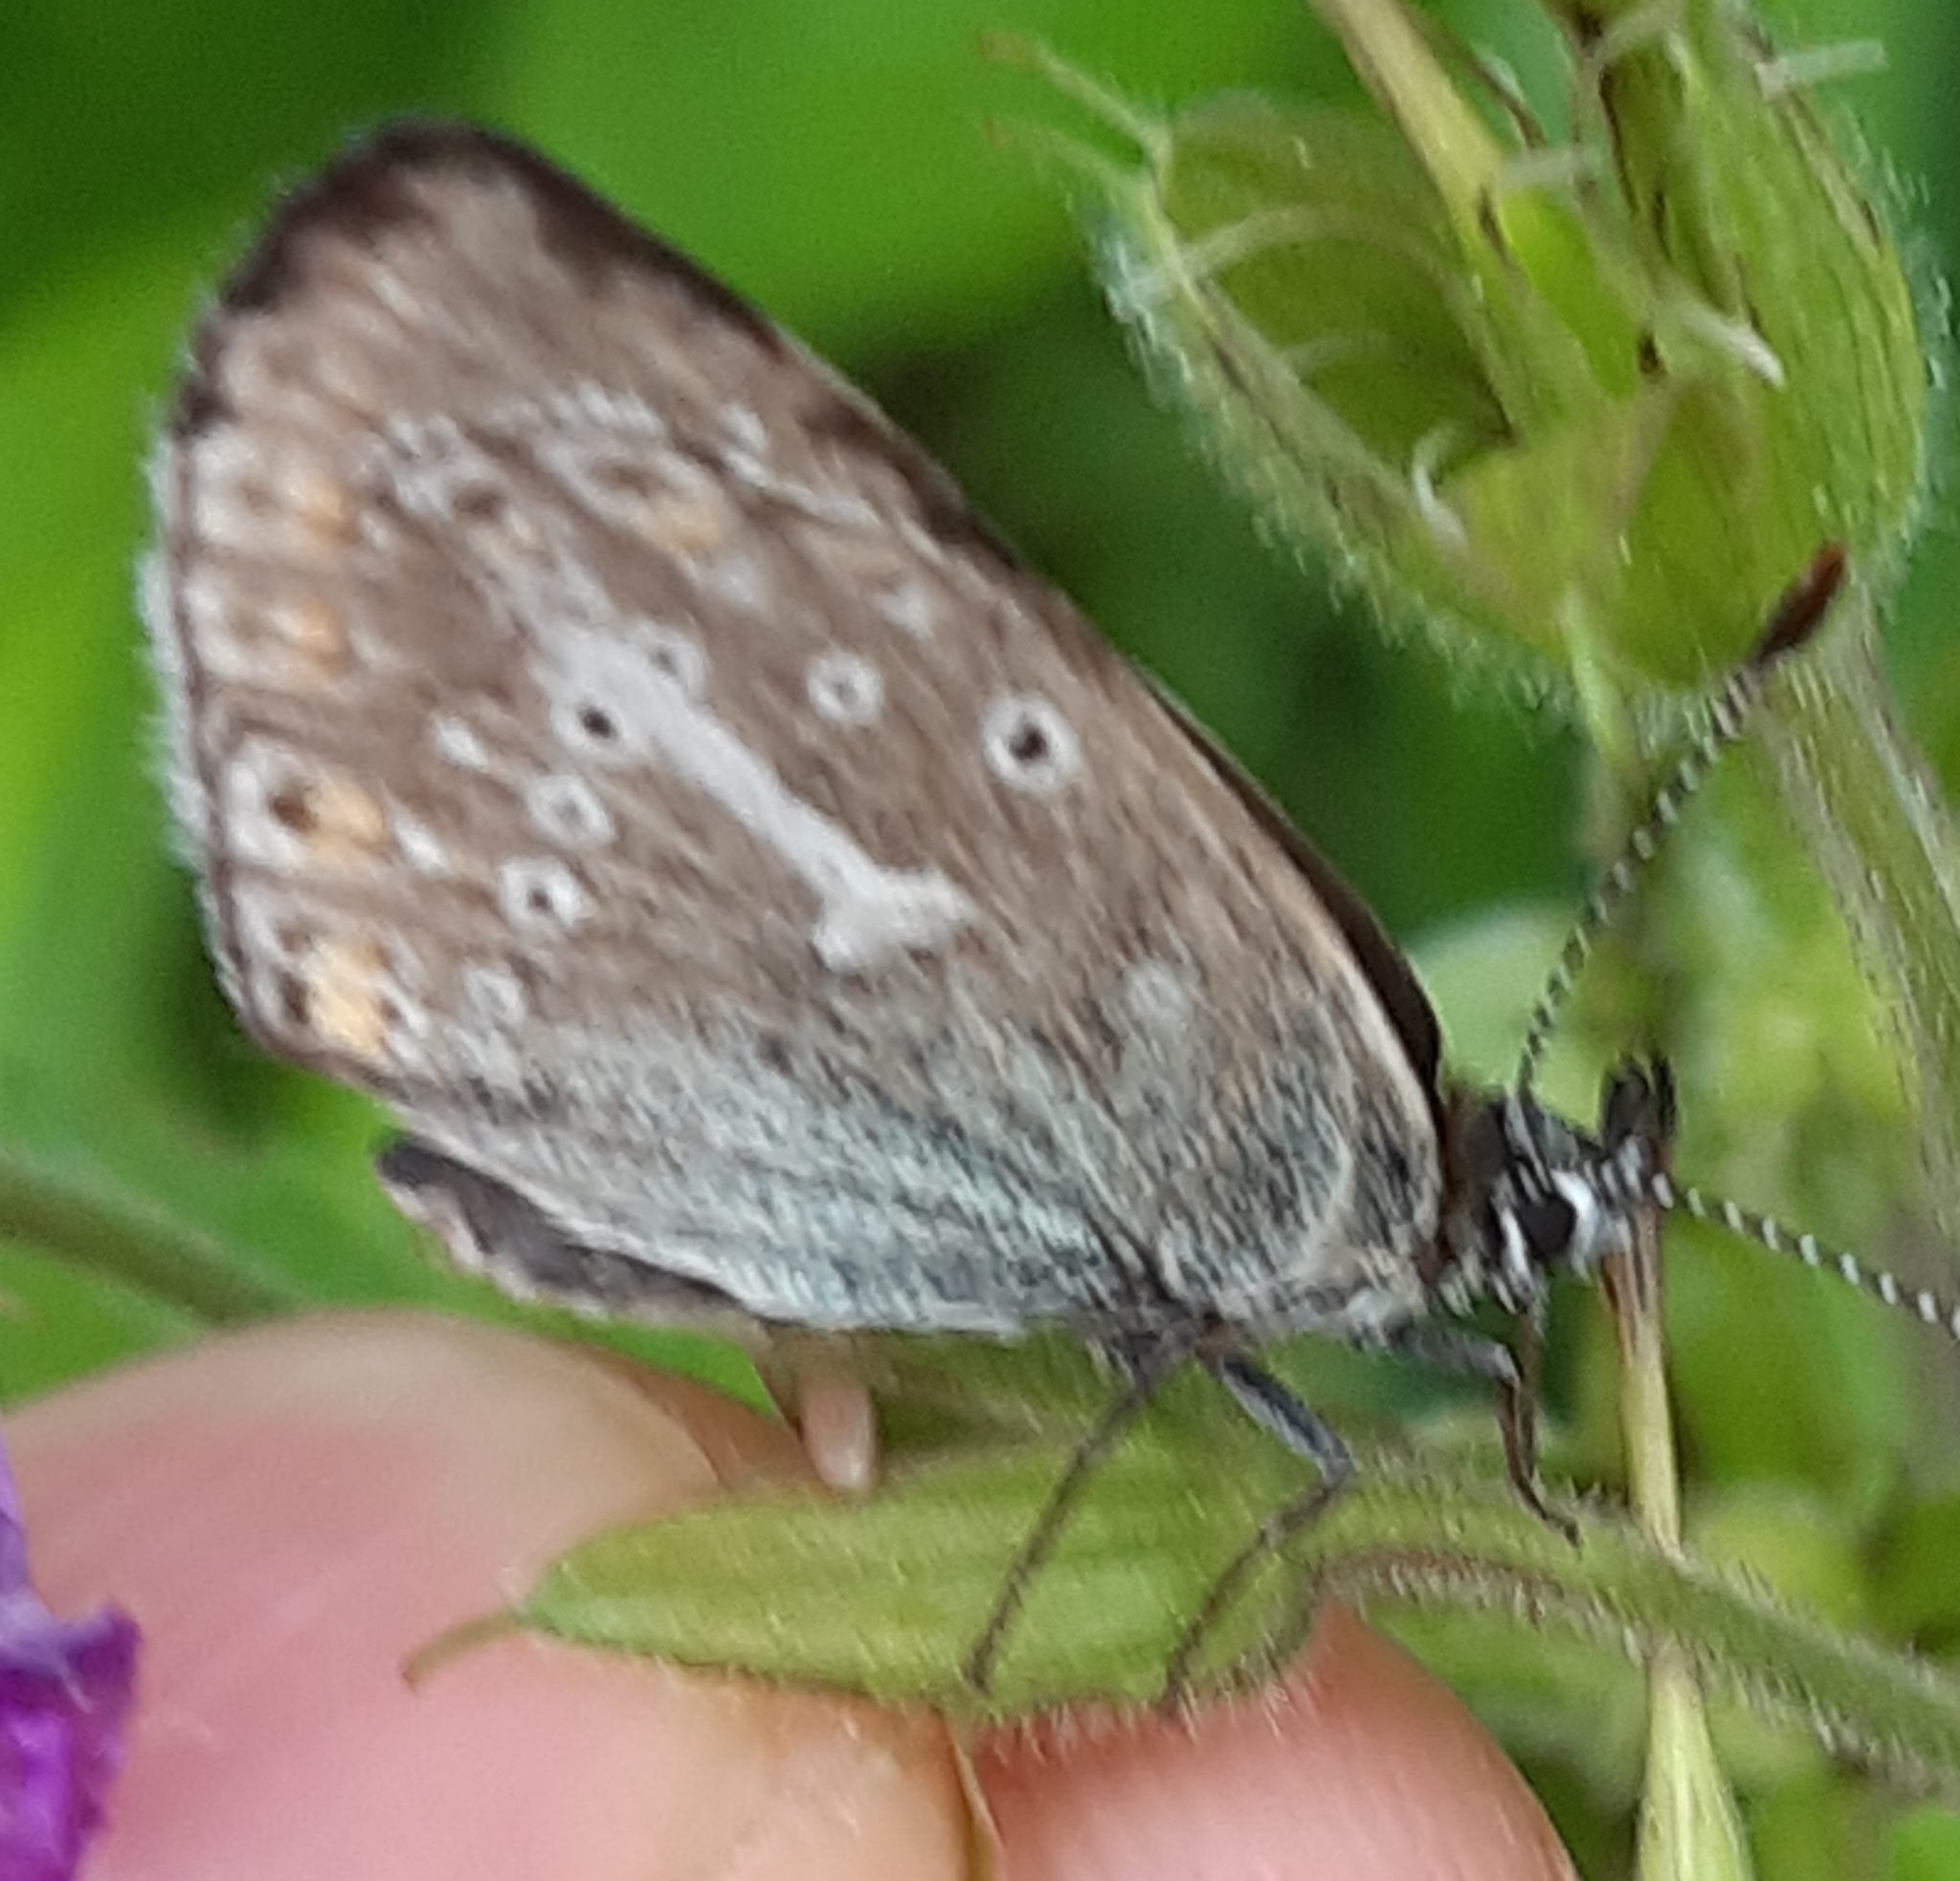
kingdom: Animalia
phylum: Arthropoda
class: Insecta
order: Lepidoptera
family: Lycaenidae
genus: Eumedonia
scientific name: Eumedonia eumedon
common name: Geranium argus
